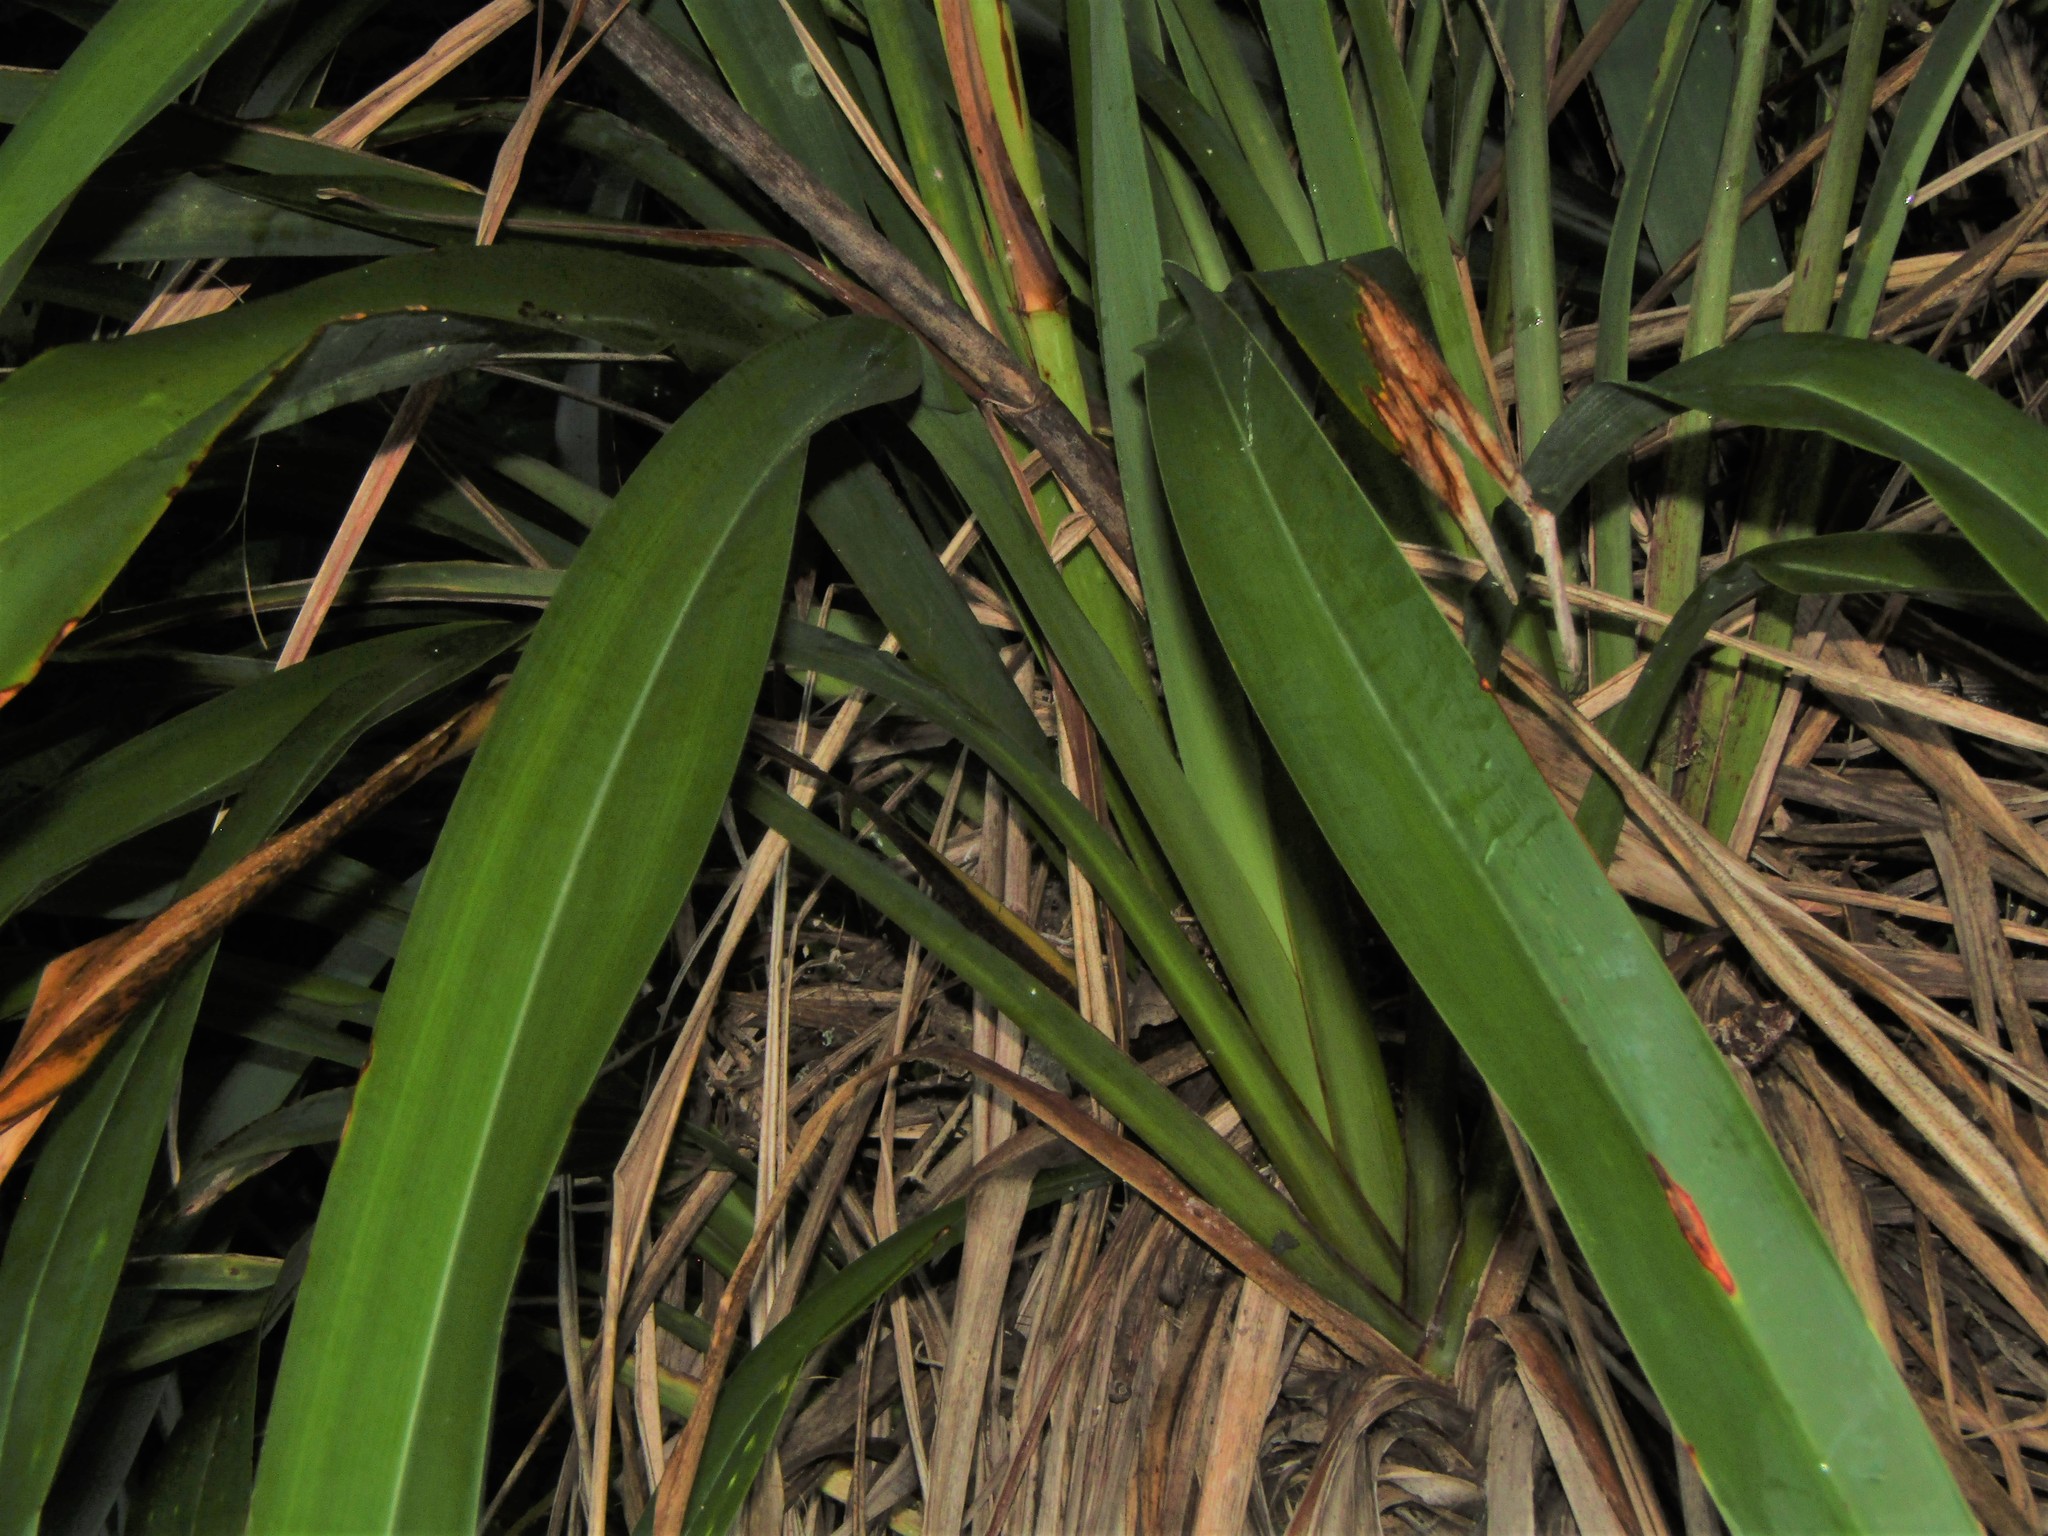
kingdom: Plantae
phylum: Tracheophyta
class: Liliopsida
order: Asparagales
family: Asphodelaceae
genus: Phormium
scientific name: Phormium colensoi
